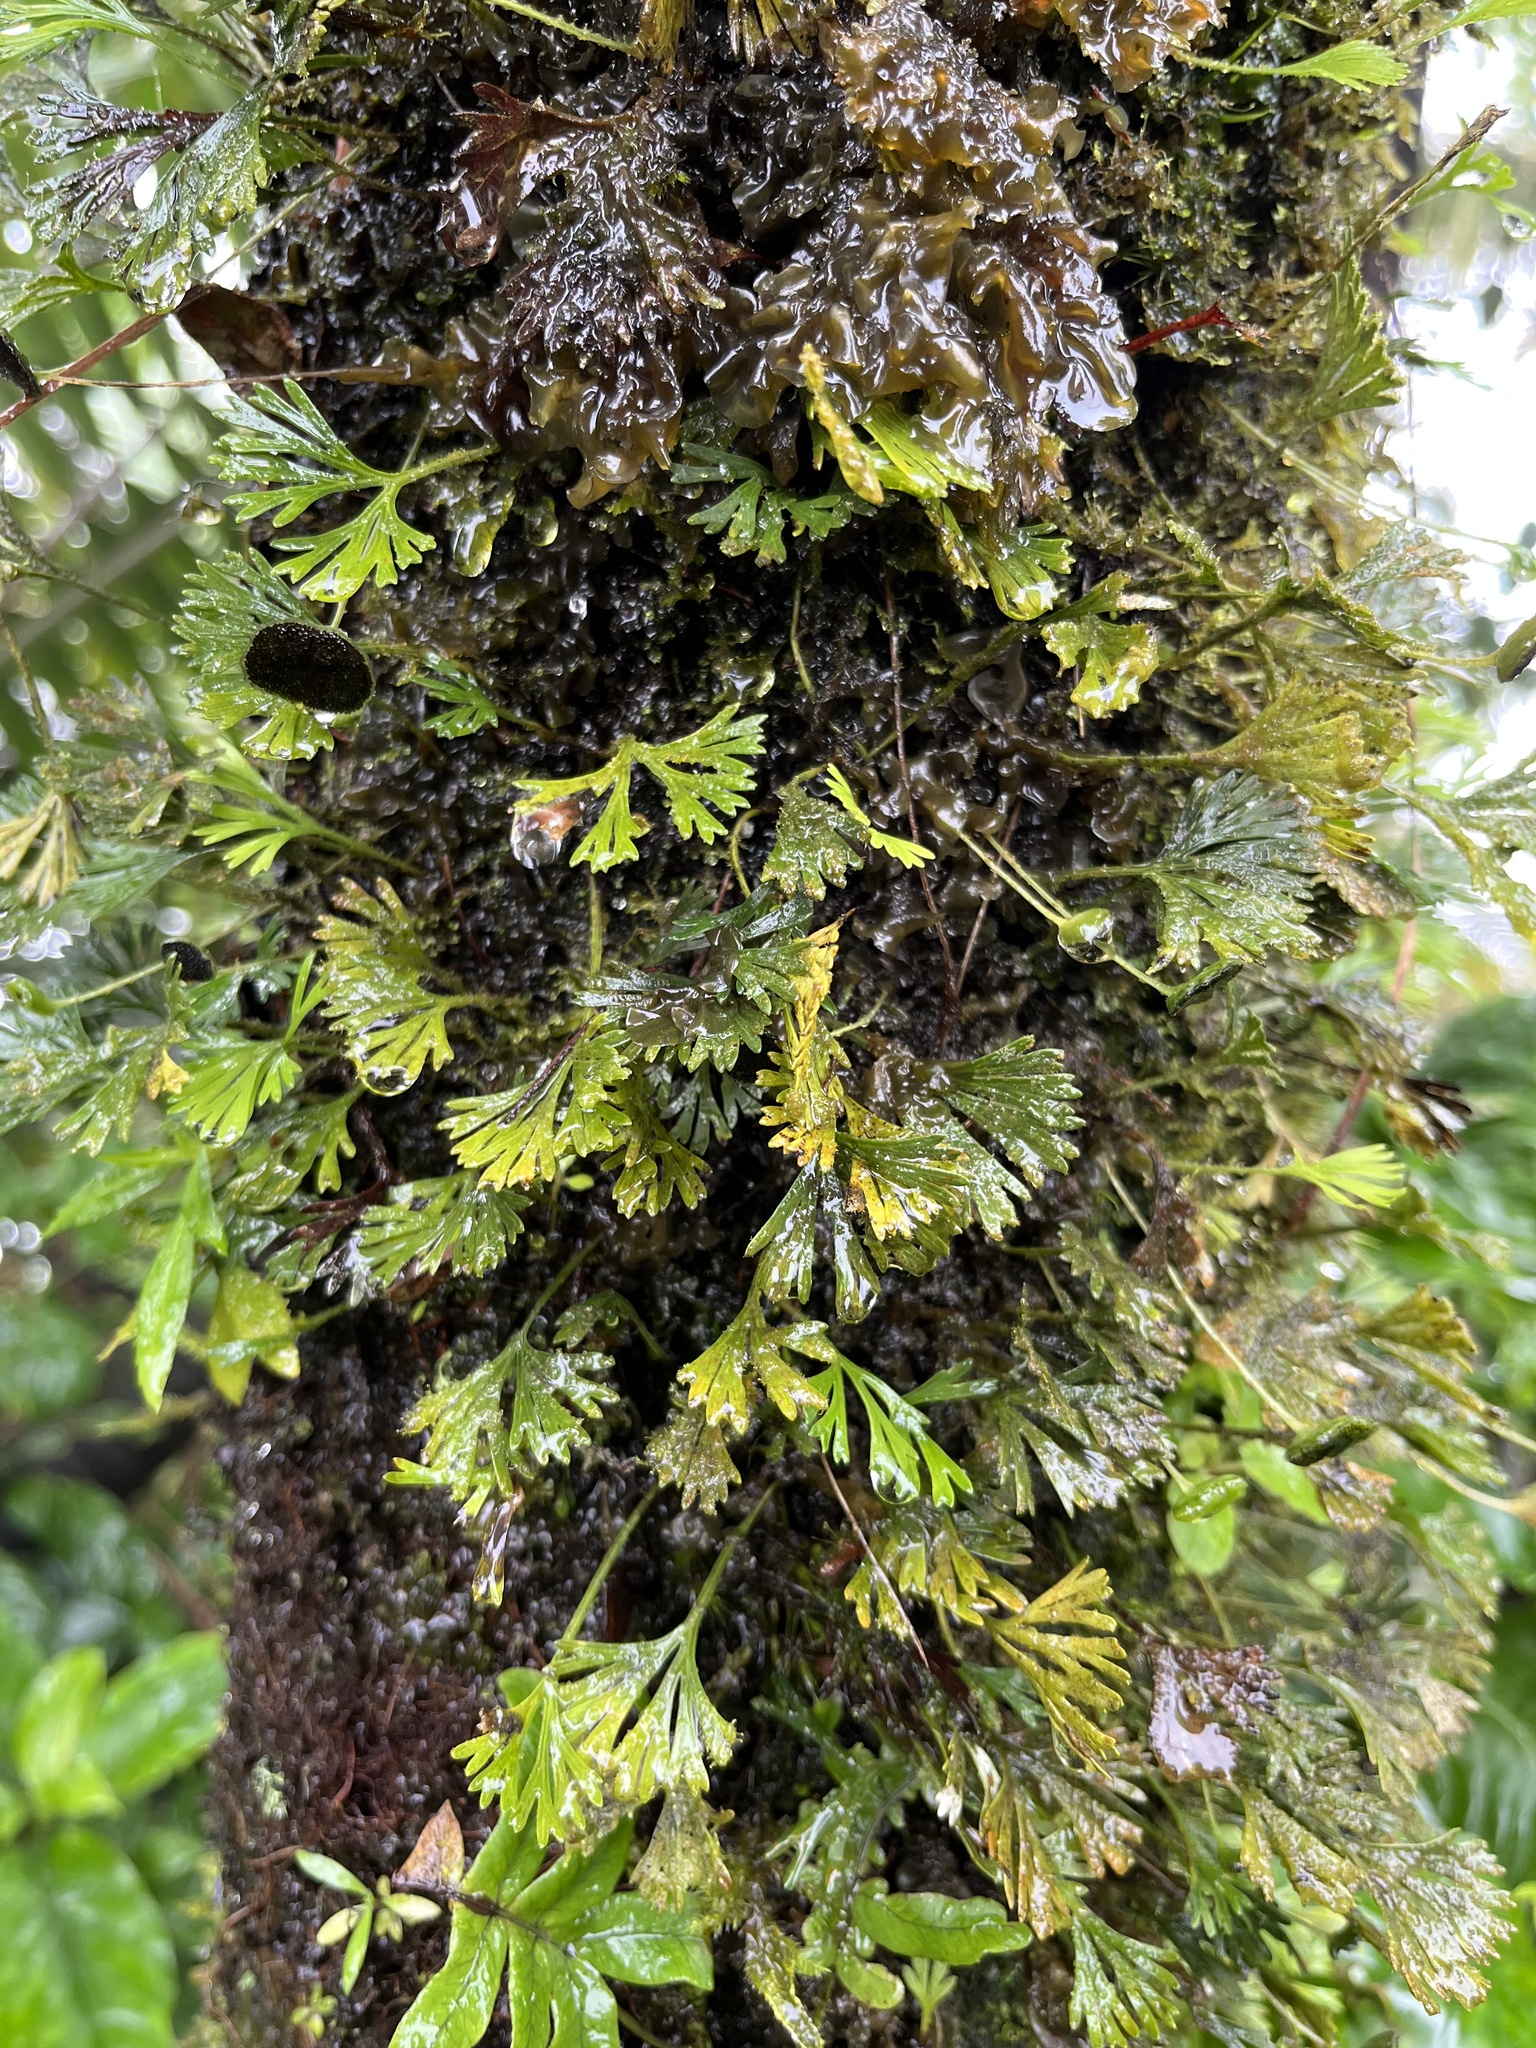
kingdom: Plantae
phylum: Tracheophyta
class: Polypodiopsida
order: Polypodiales
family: Dryopteridaceae
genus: Elaphoglossum
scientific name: Elaphoglossum peltatum
